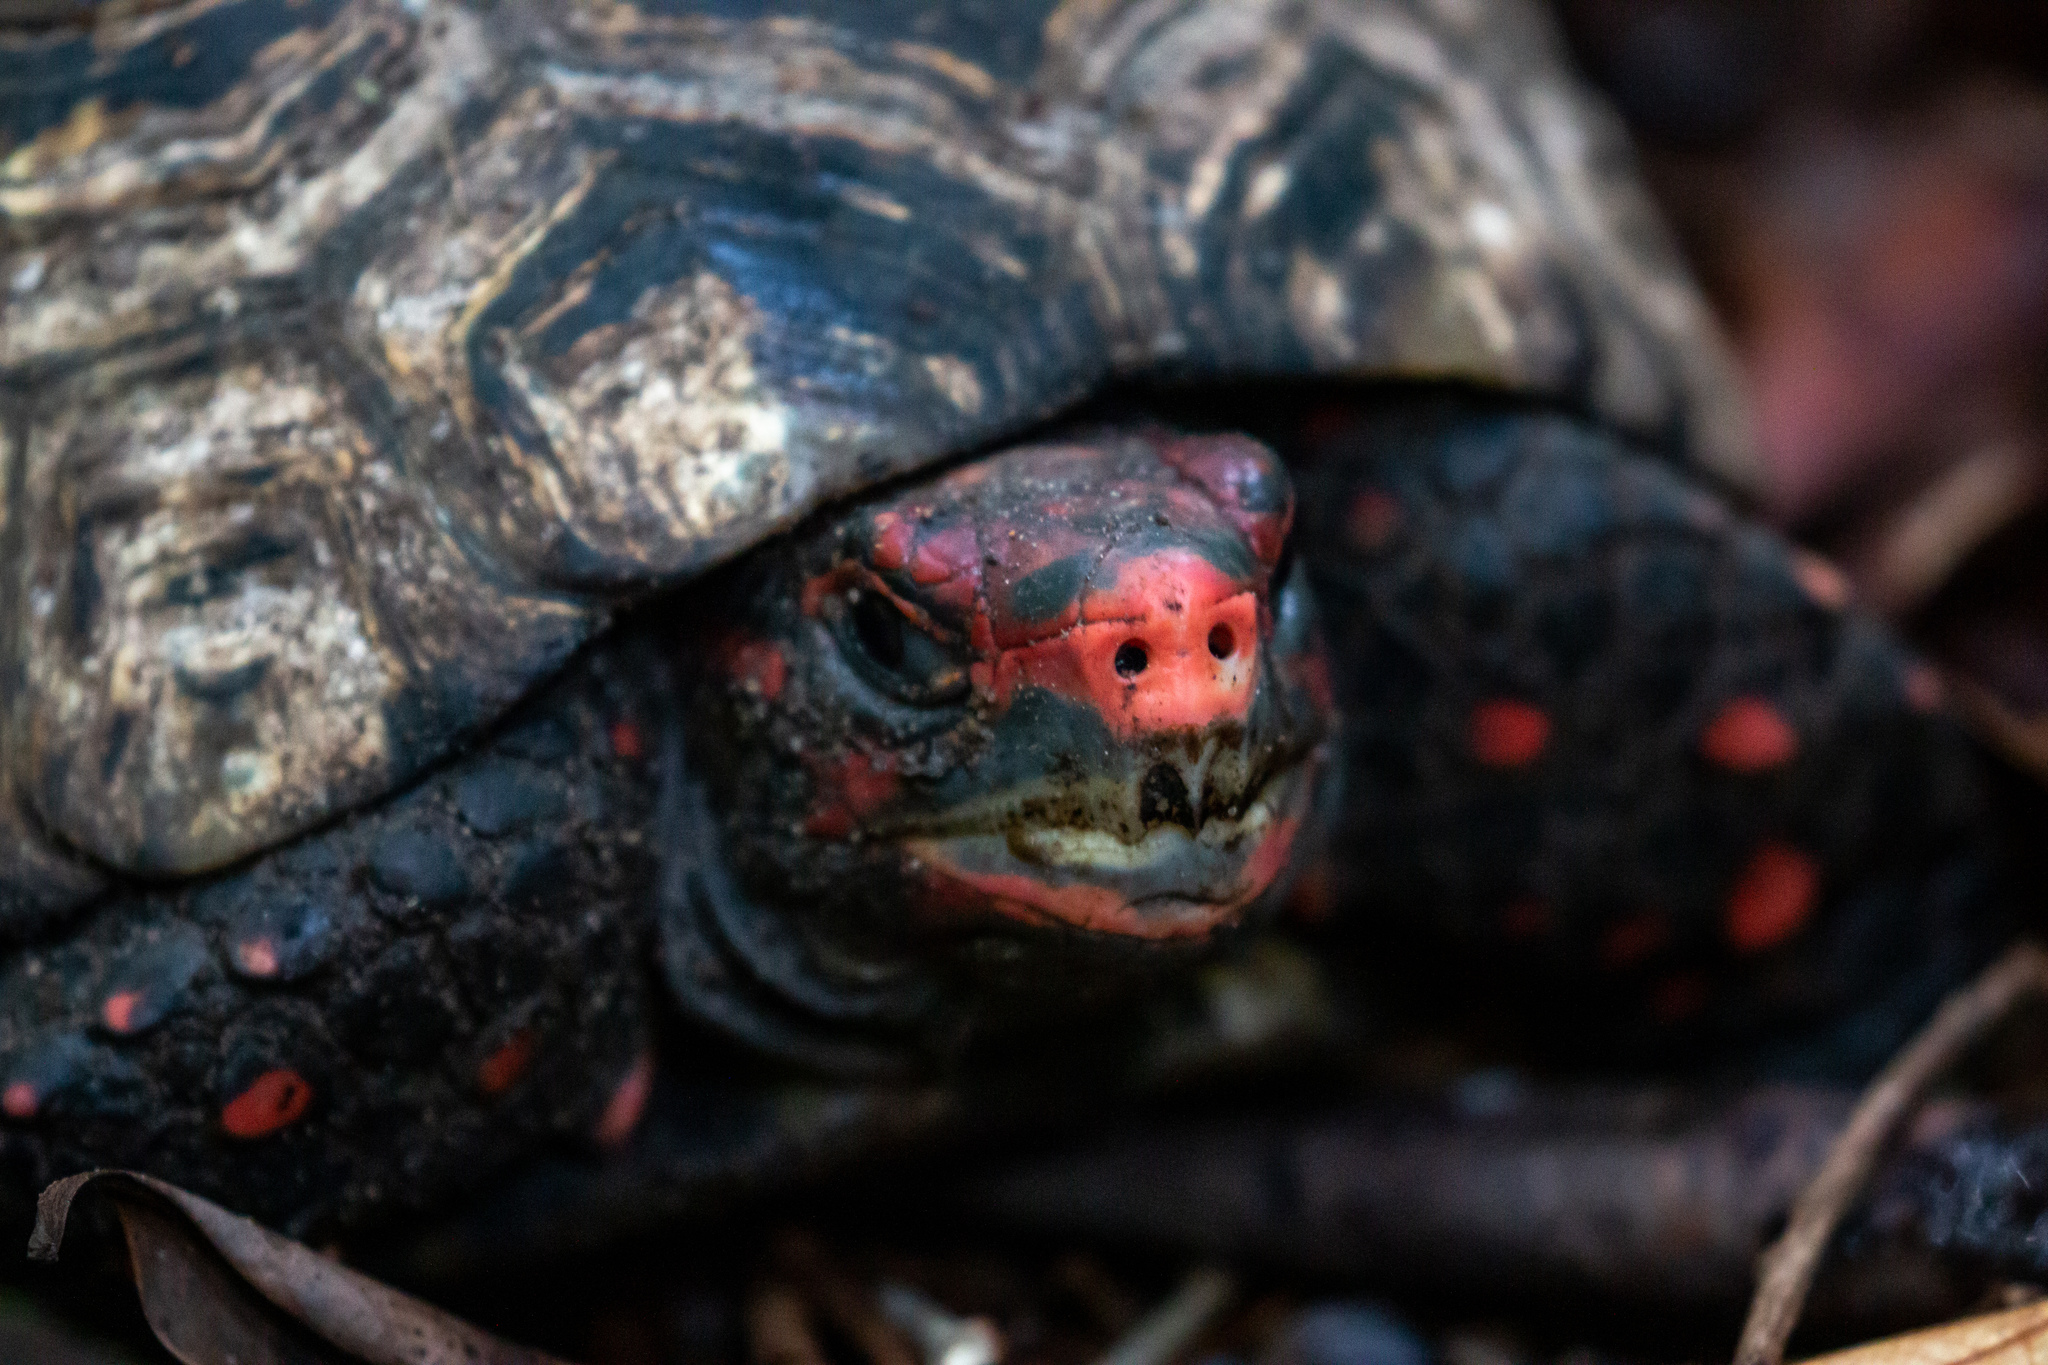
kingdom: Animalia
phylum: Chordata
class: Testudines
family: Testudinidae
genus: Chelonoidis
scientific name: Chelonoidis carbonarius
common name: Red-footed tortoise
